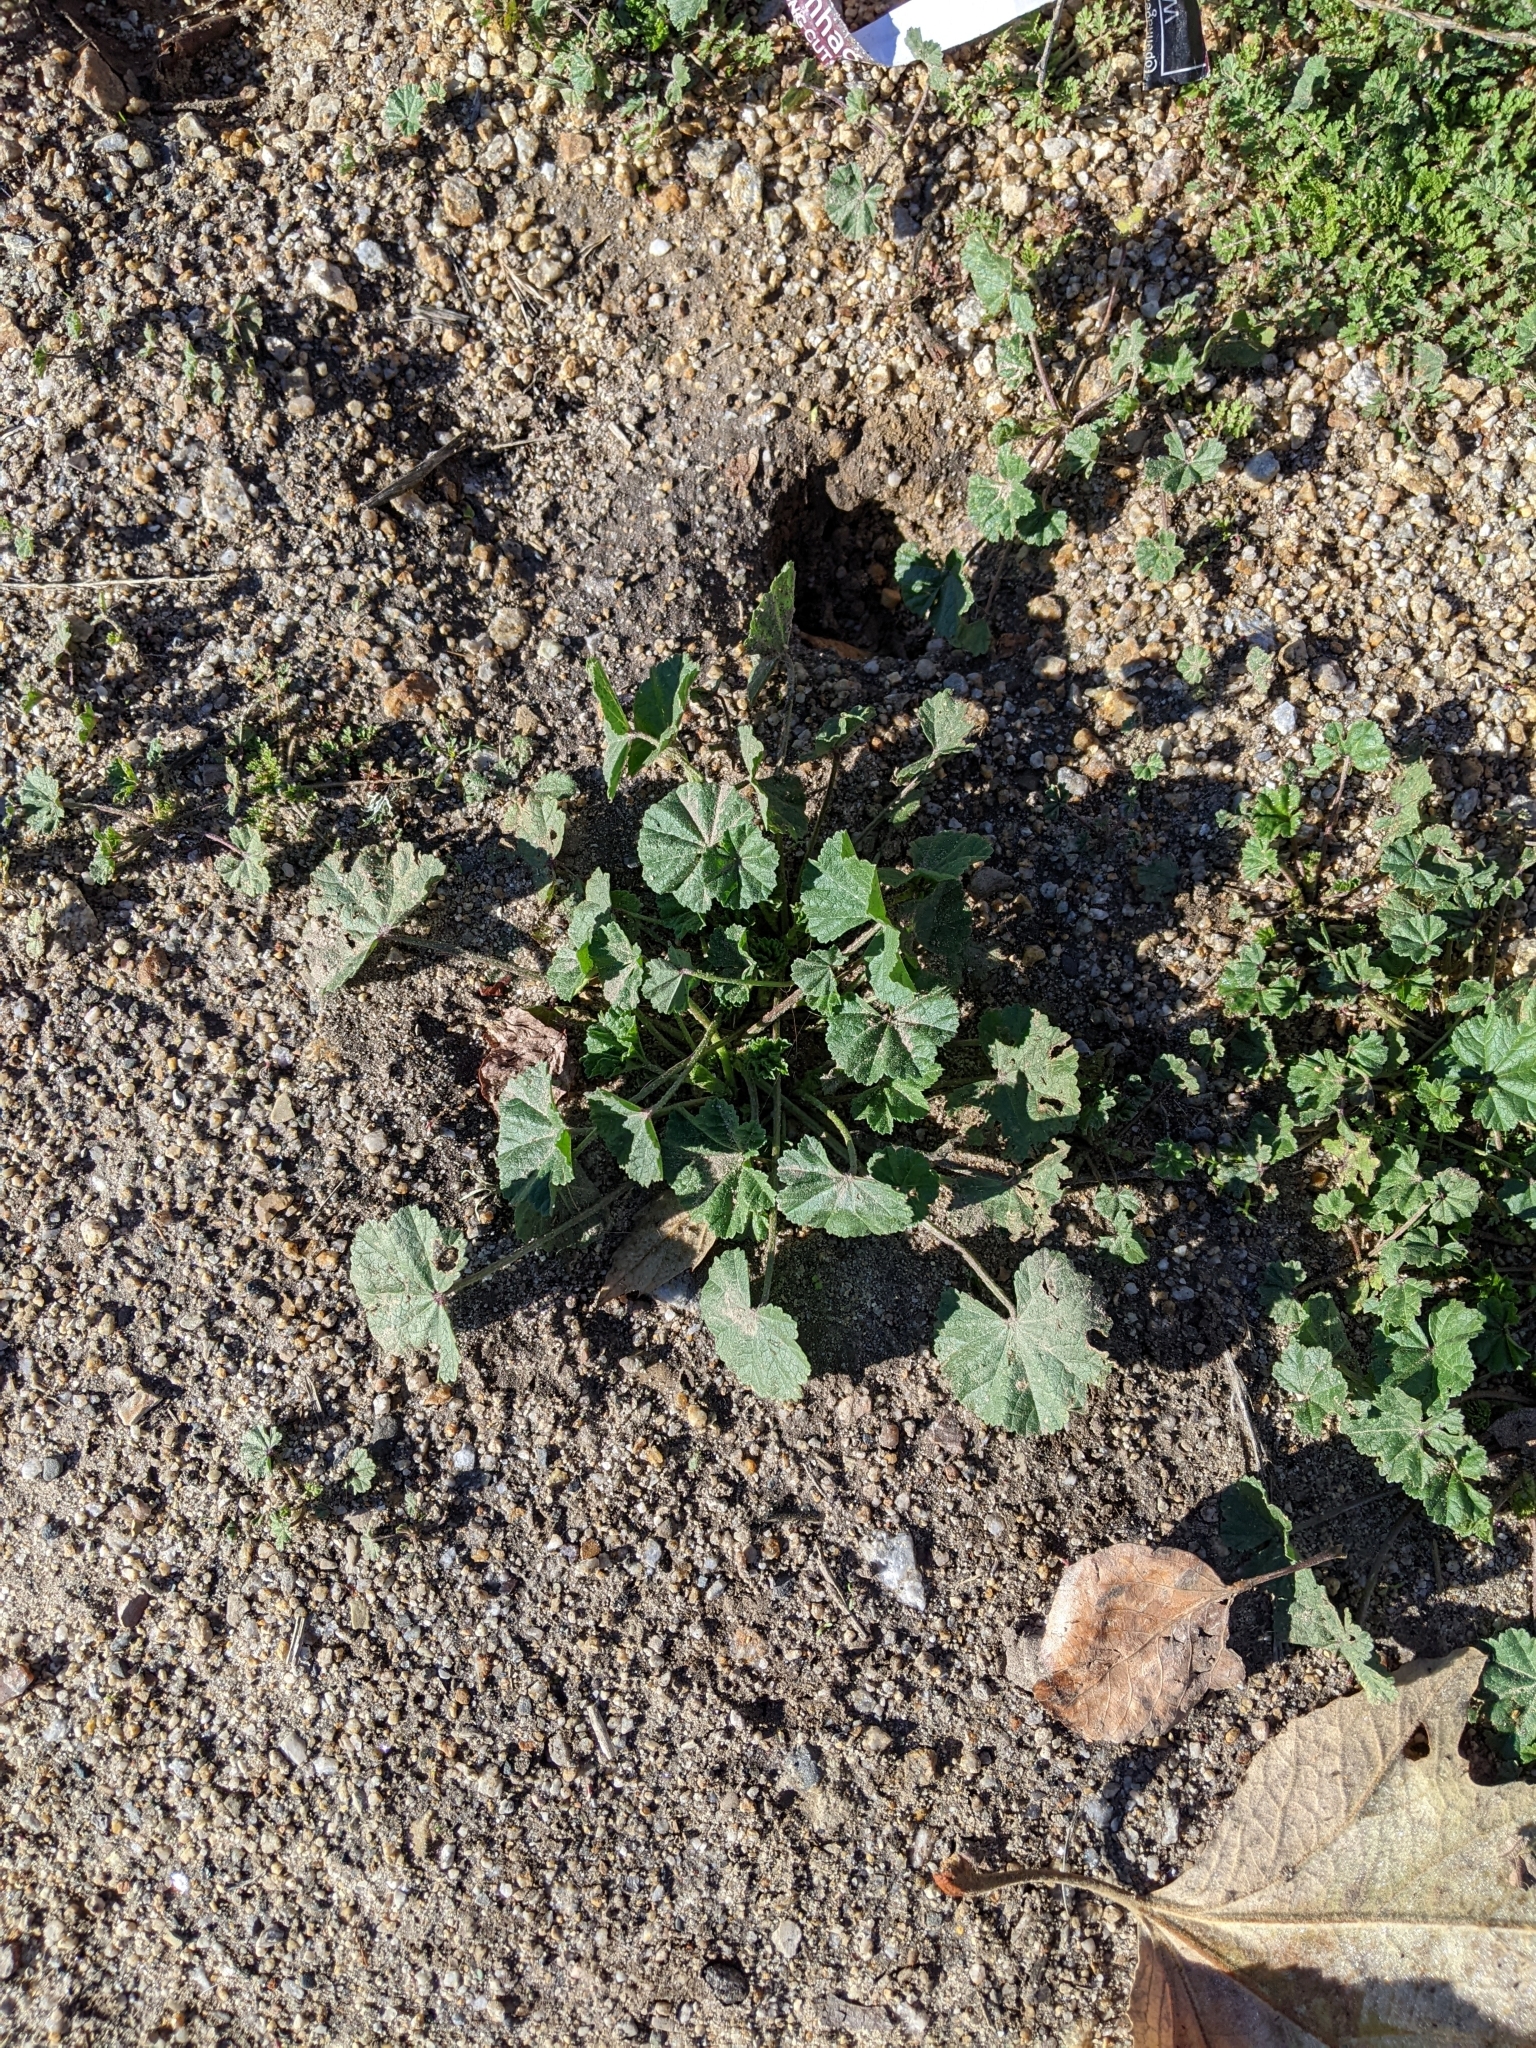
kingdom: Plantae
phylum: Tracheophyta
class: Magnoliopsida
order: Malvales
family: Malvaceae
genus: Malva
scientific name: Malva
